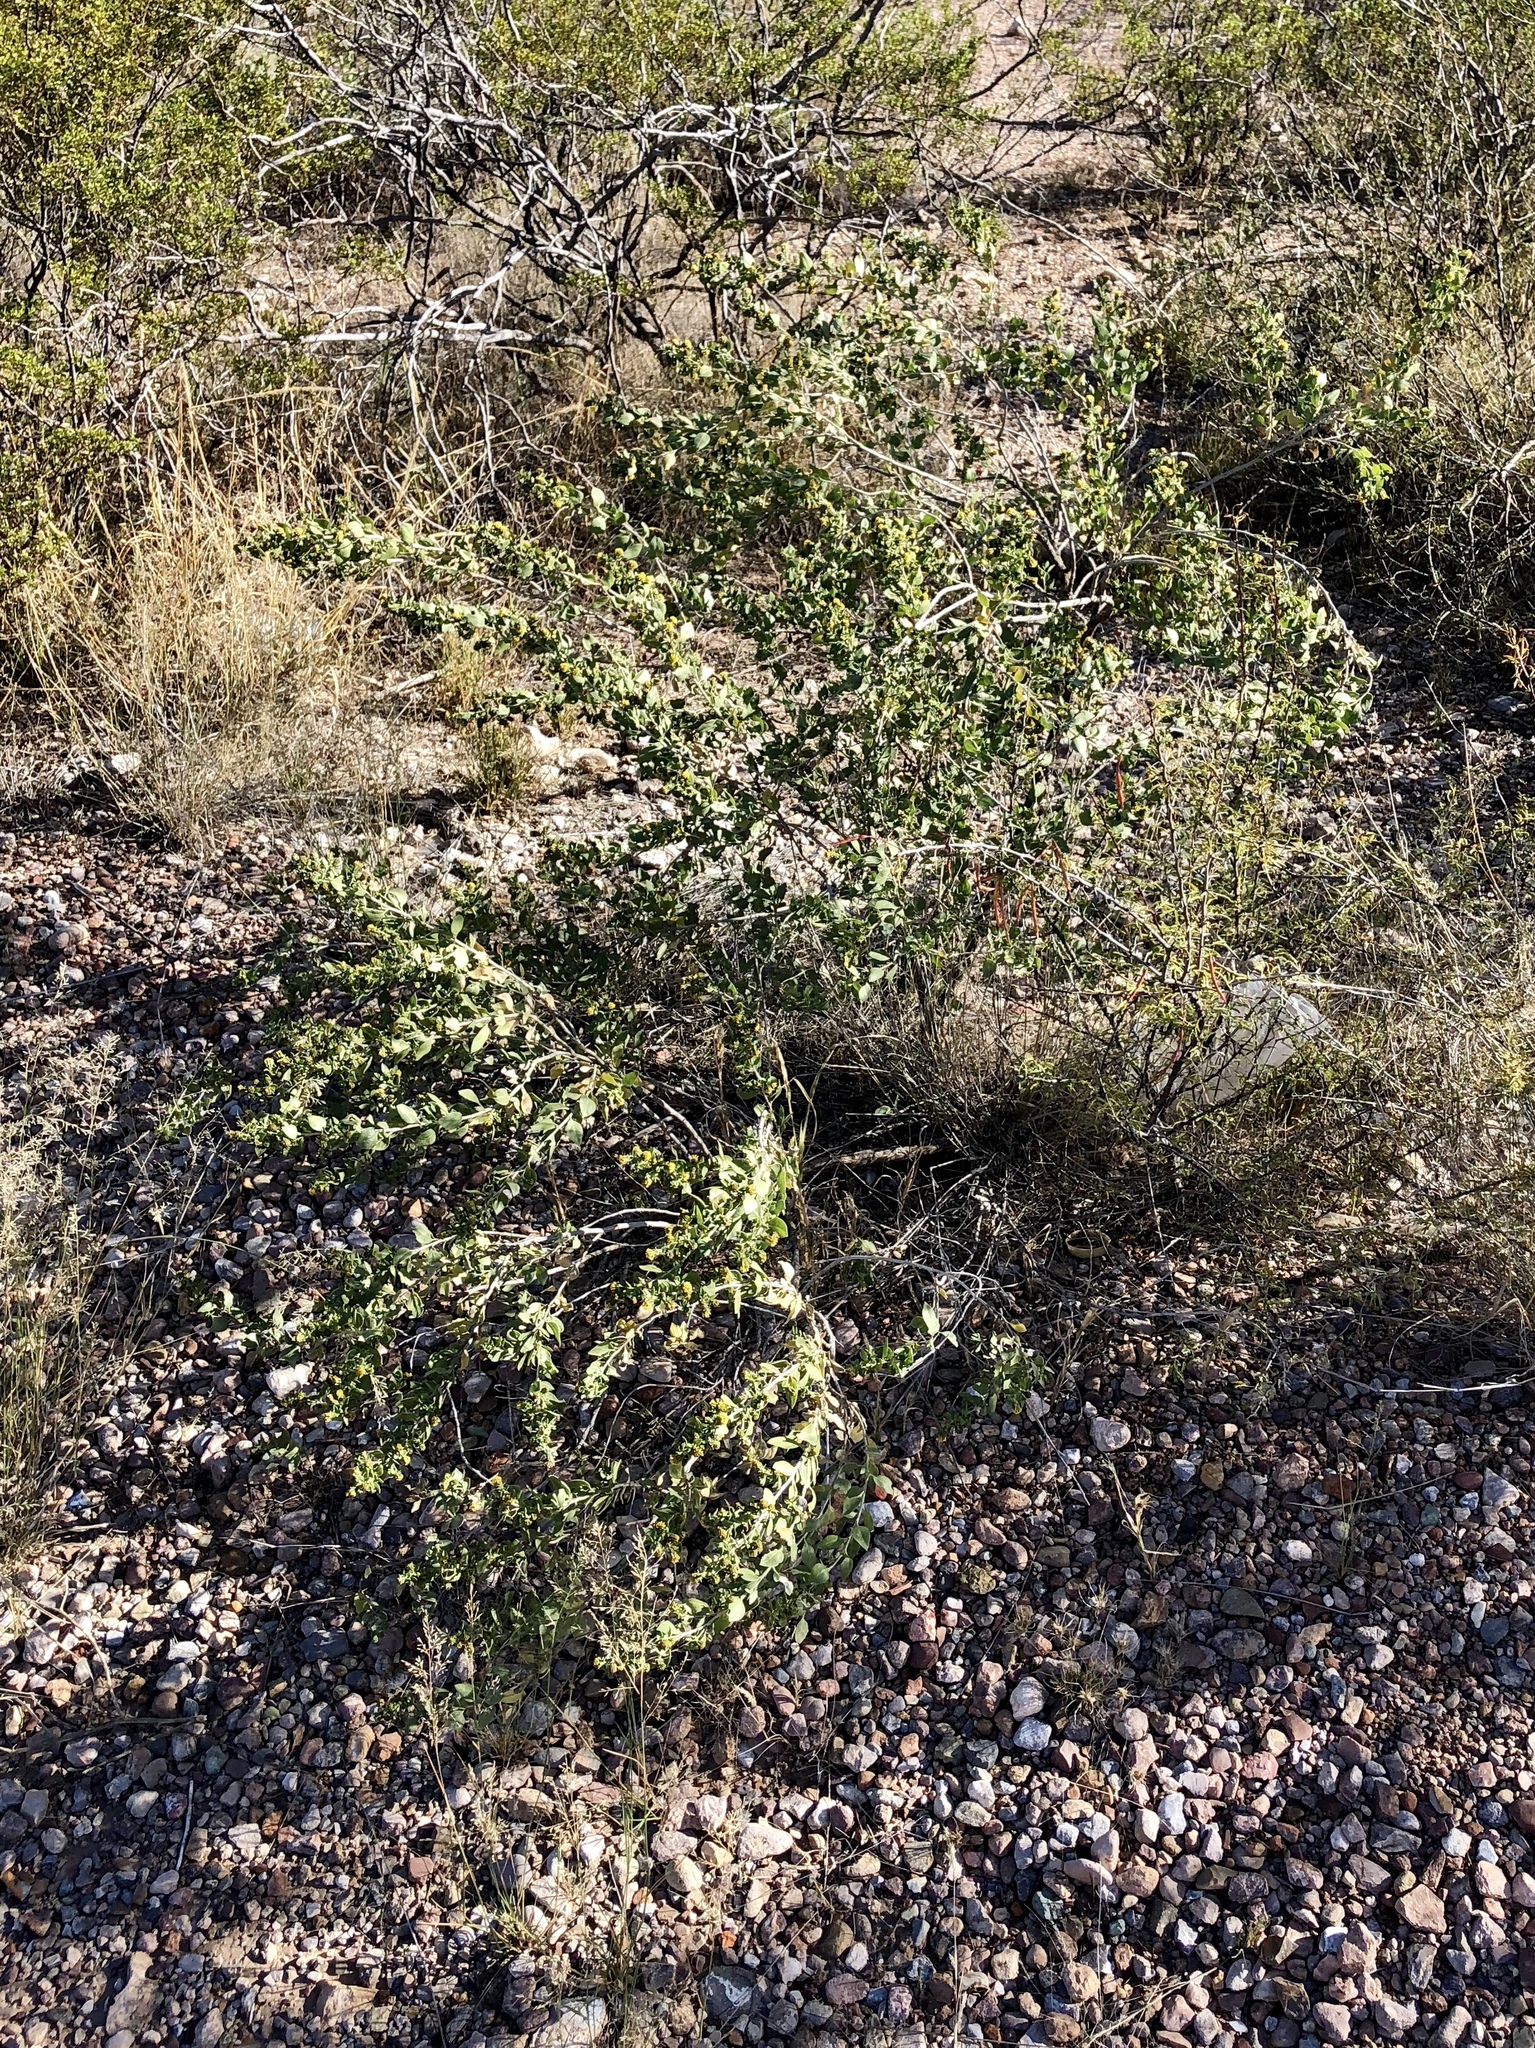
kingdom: Plantae
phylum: Tracheophyta
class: Magnoliopsida
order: Asterales
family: Asteraceae
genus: Flourensia
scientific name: Flourensia cernua
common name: Varnishbush
